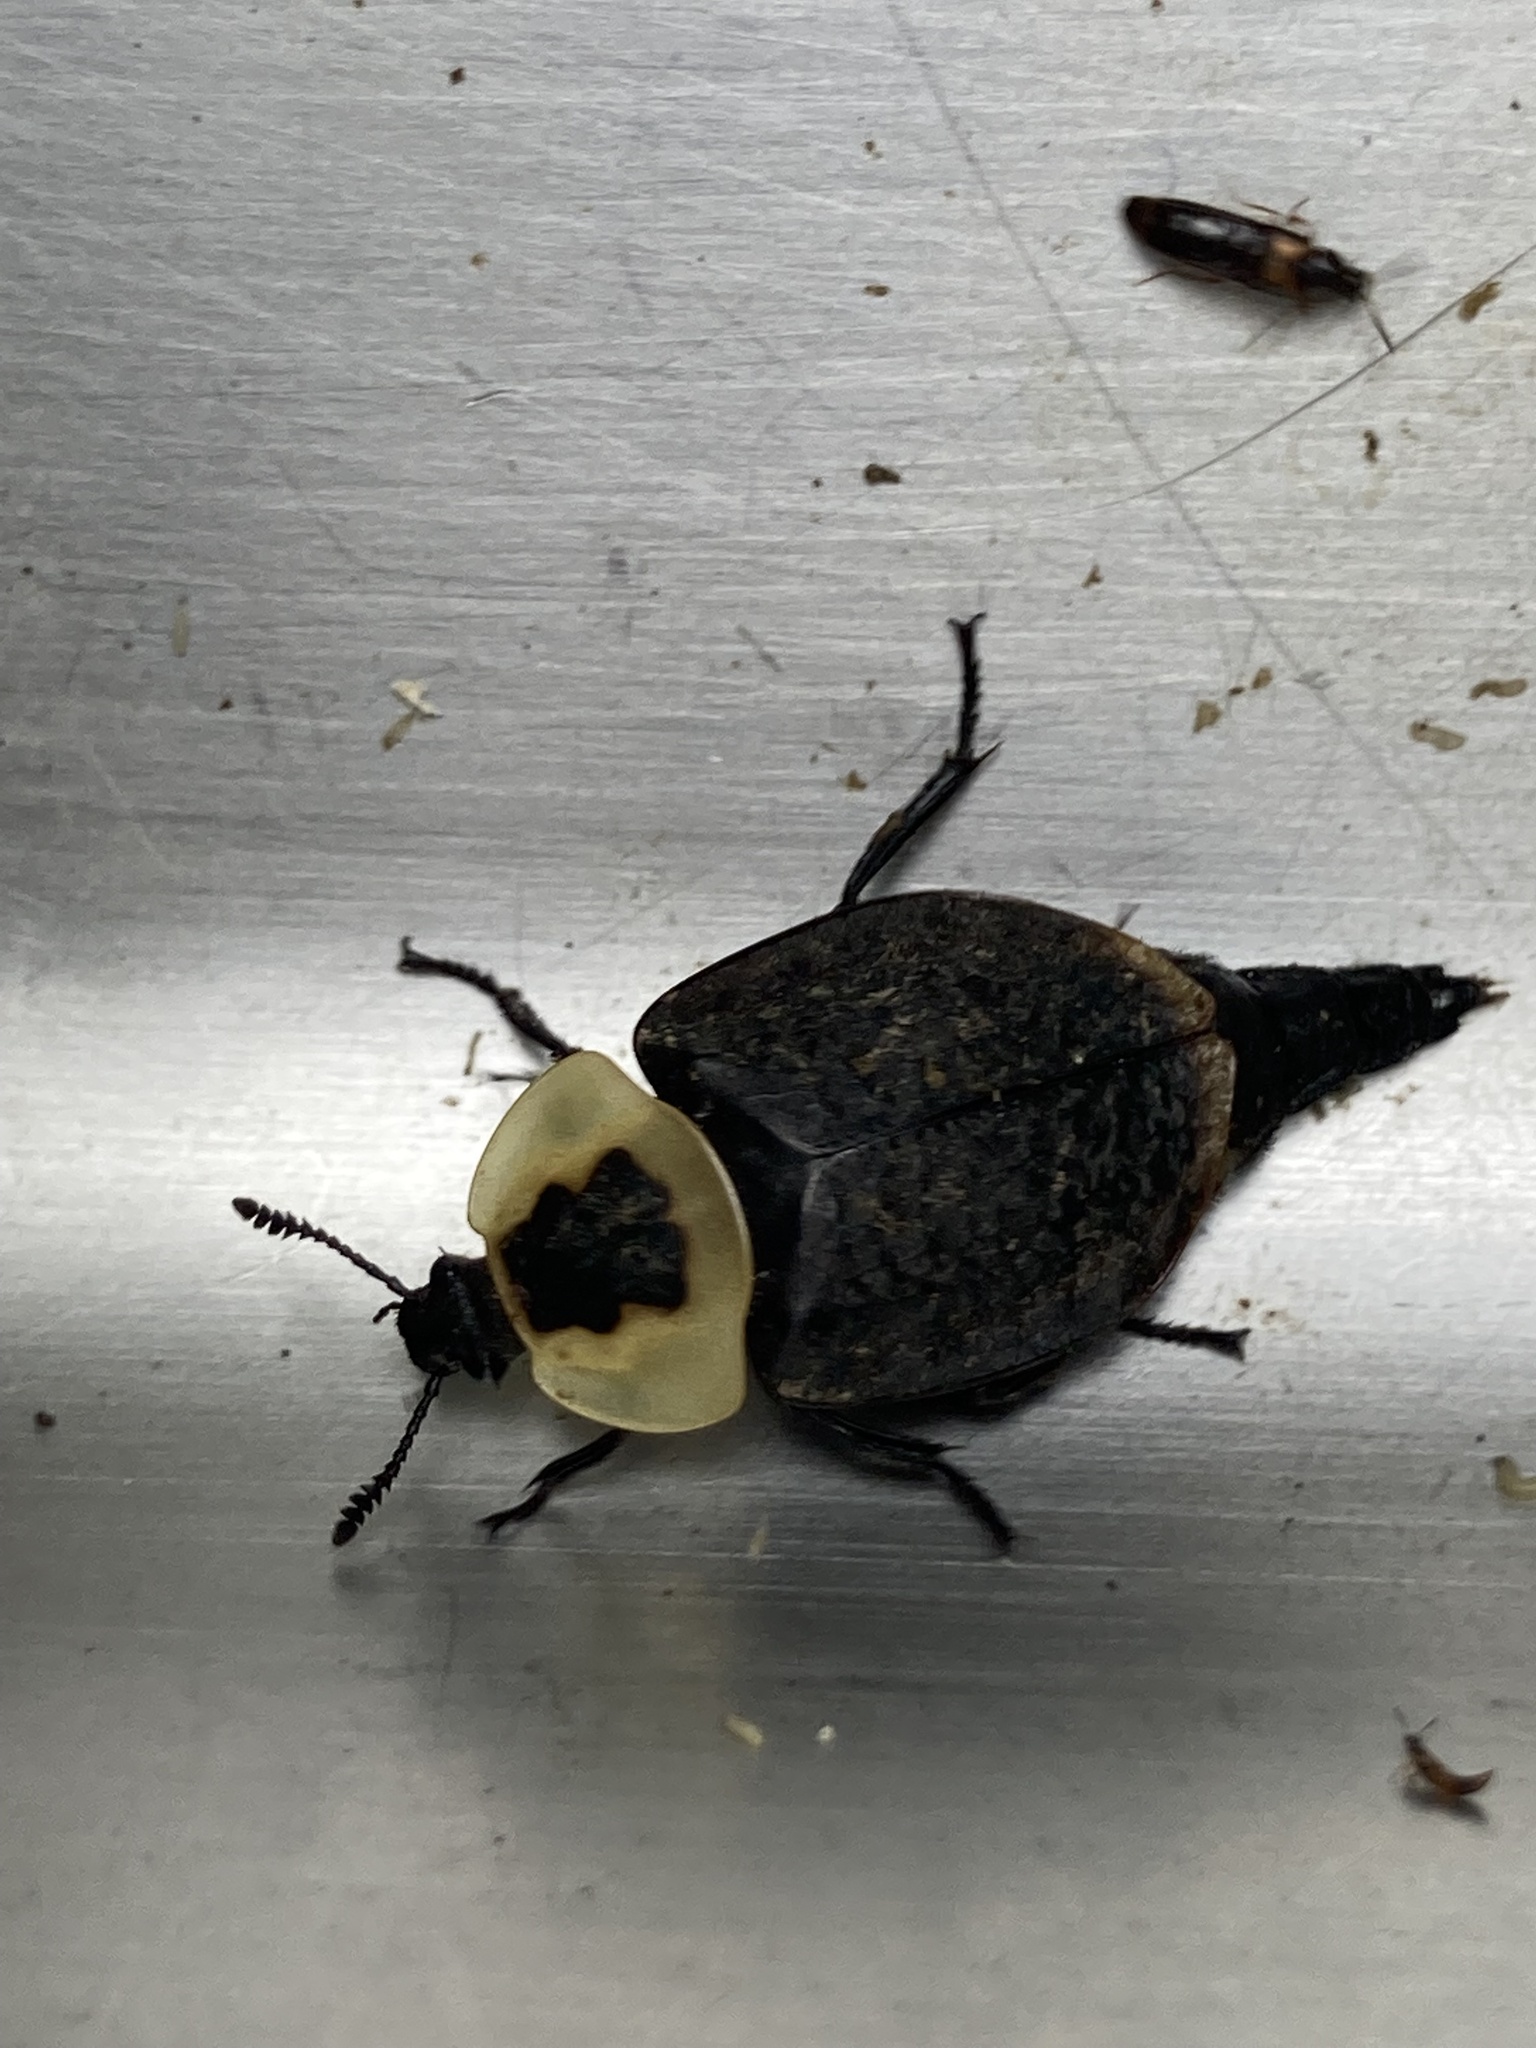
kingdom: Animalia
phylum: Arthropoda
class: Insecta
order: Coleoptera
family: Staphylinidae
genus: Necrophila
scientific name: Necrophila americana
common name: American carrion beetle
